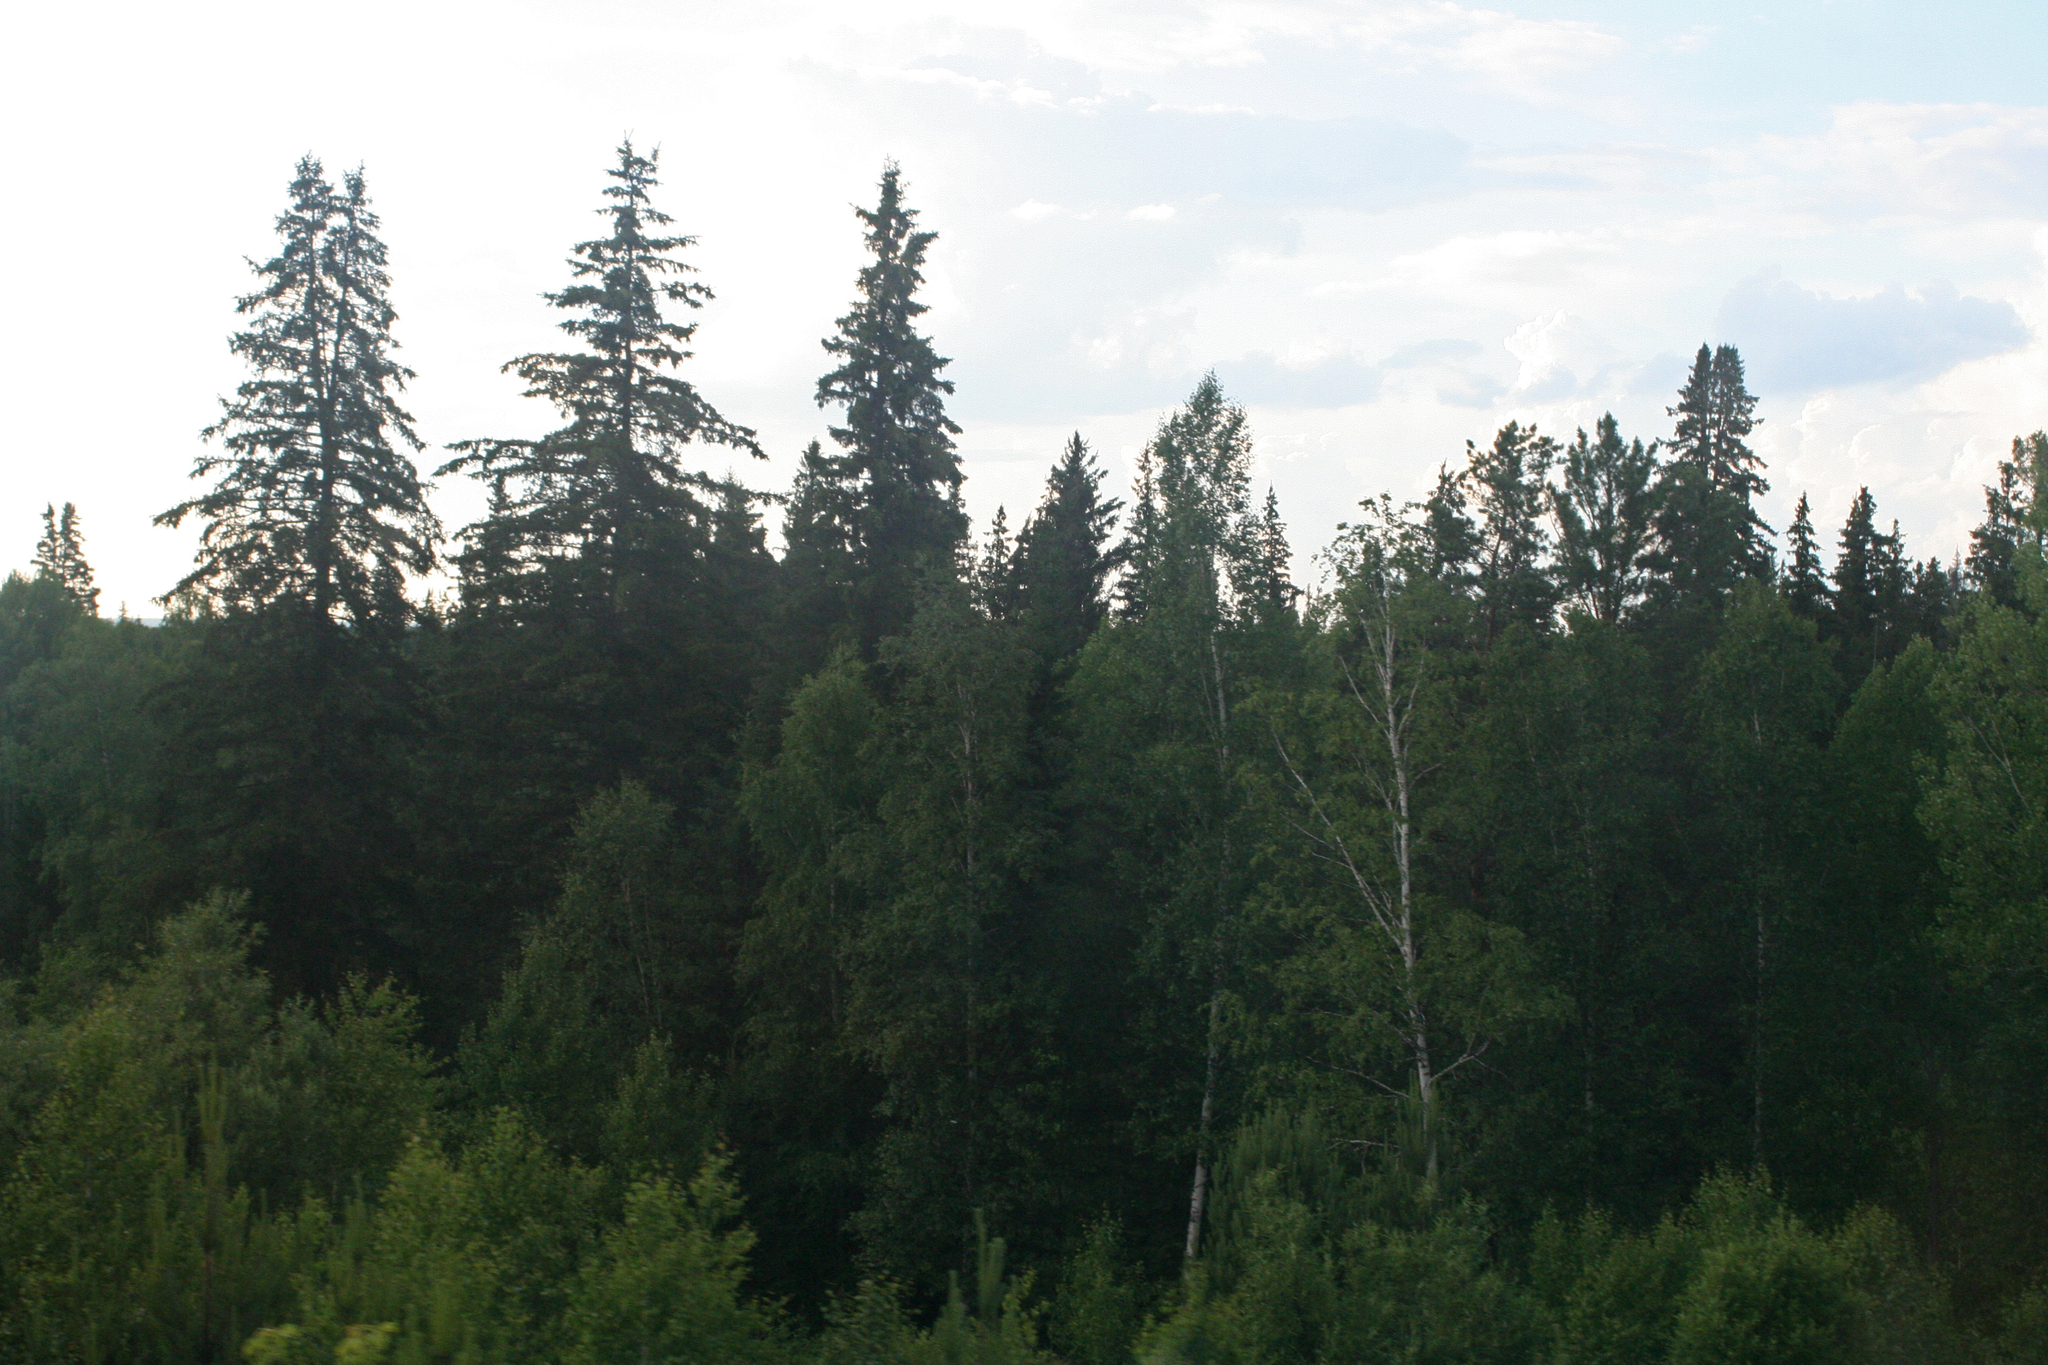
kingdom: Plantae
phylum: Tracheophyta
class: Pinopsida
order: Pinales
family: Pinaceae
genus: Picea
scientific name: Picea obovata
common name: Siberian spruce
